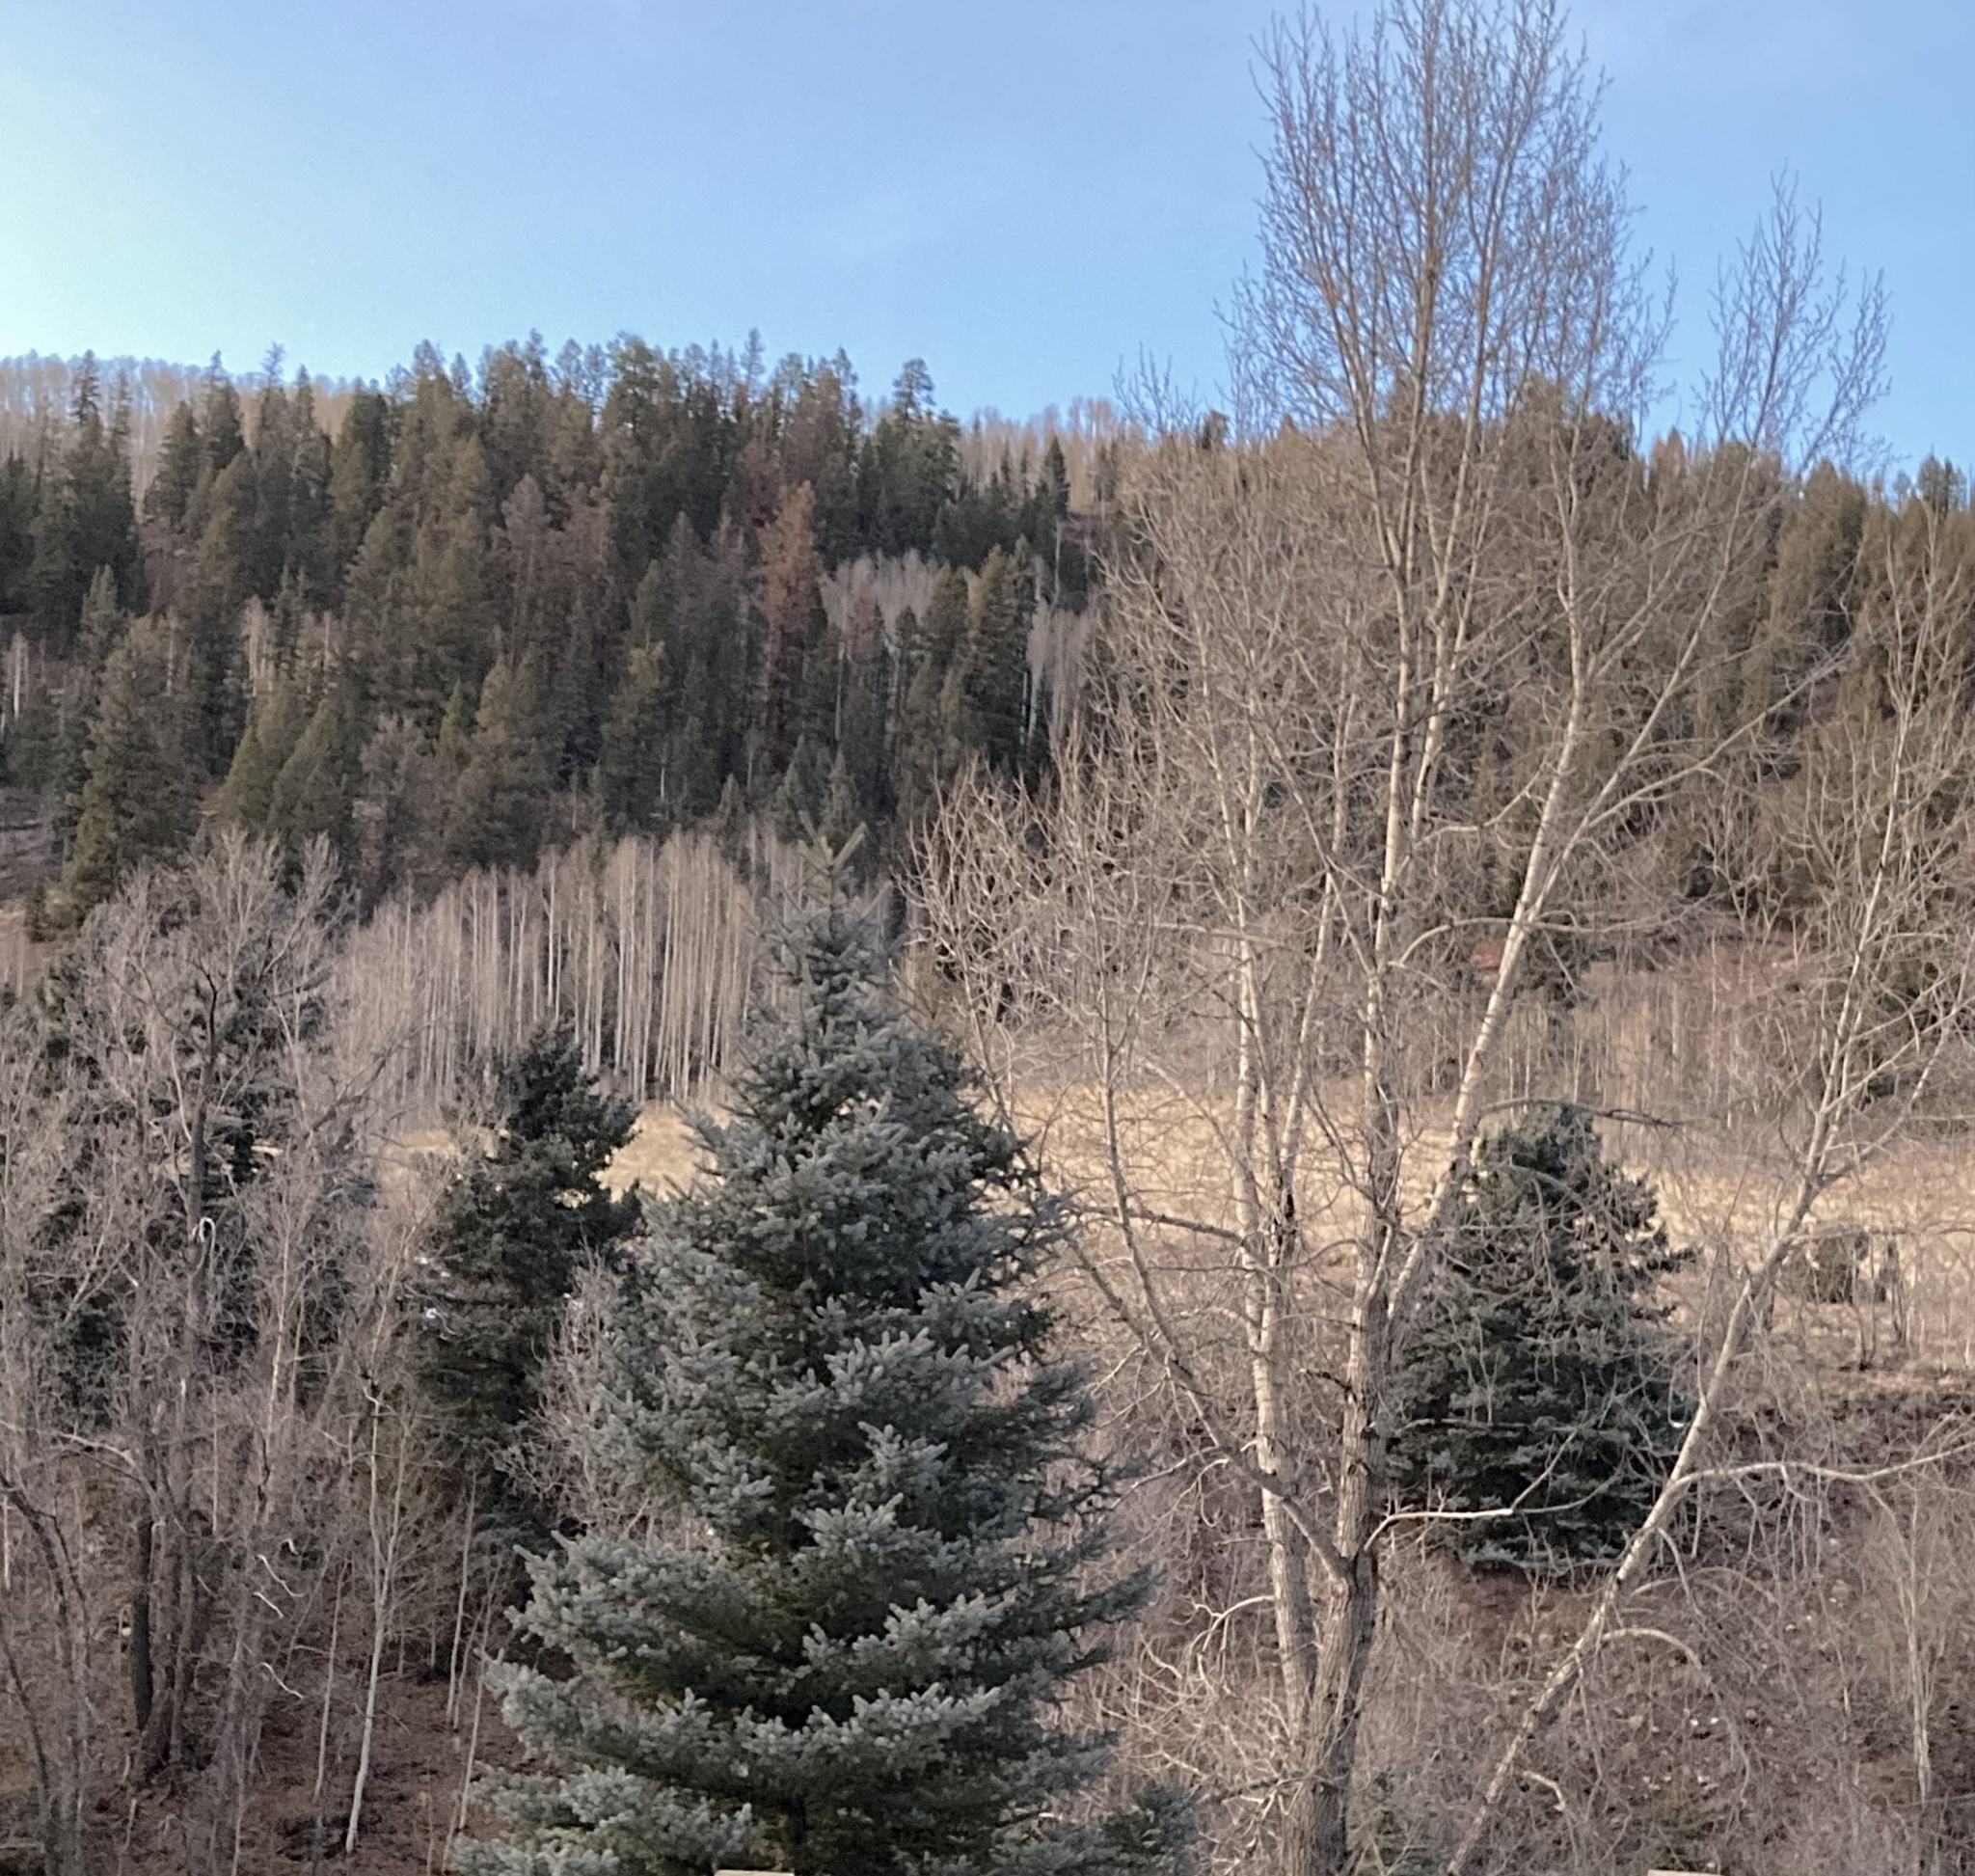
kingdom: Plantae
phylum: Tracheophyta
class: Pinopsida
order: Pinales
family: Pinaceae
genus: Picea
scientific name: Picea pungens
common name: Colorado spruce
